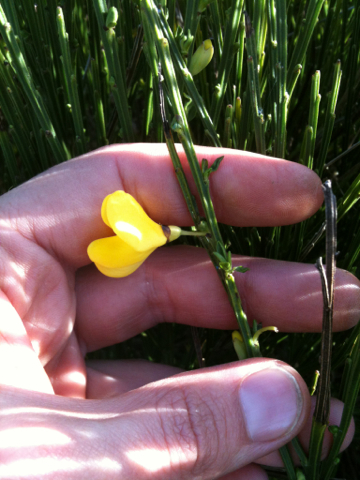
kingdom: Plantae
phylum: Tracheophyta
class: Magnoliopsida
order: Fabales
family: Fabaceae
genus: Spartium
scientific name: Spartium junceum
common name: Spanish broom
